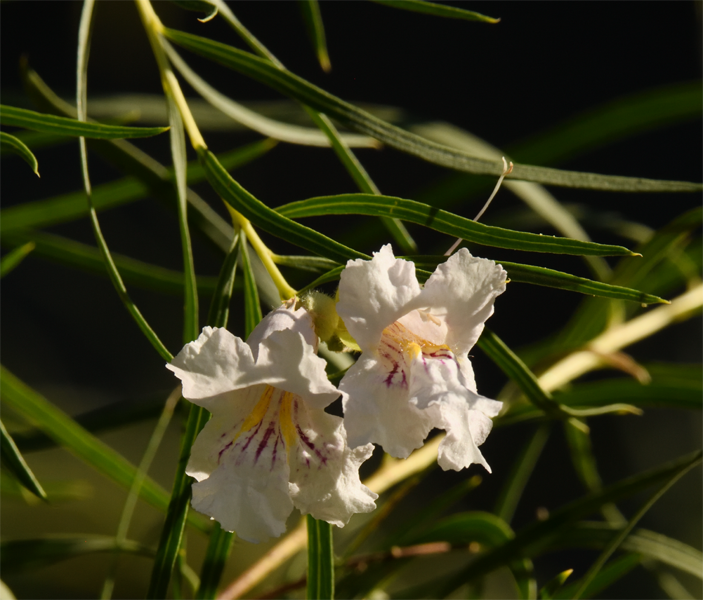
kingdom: Plantae
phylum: Tracheophyta
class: Magnoliopsida
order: Lamiales
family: Bignoniaceae
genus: Chilopsis
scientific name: Chilopsis linearis
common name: Desert-willow
